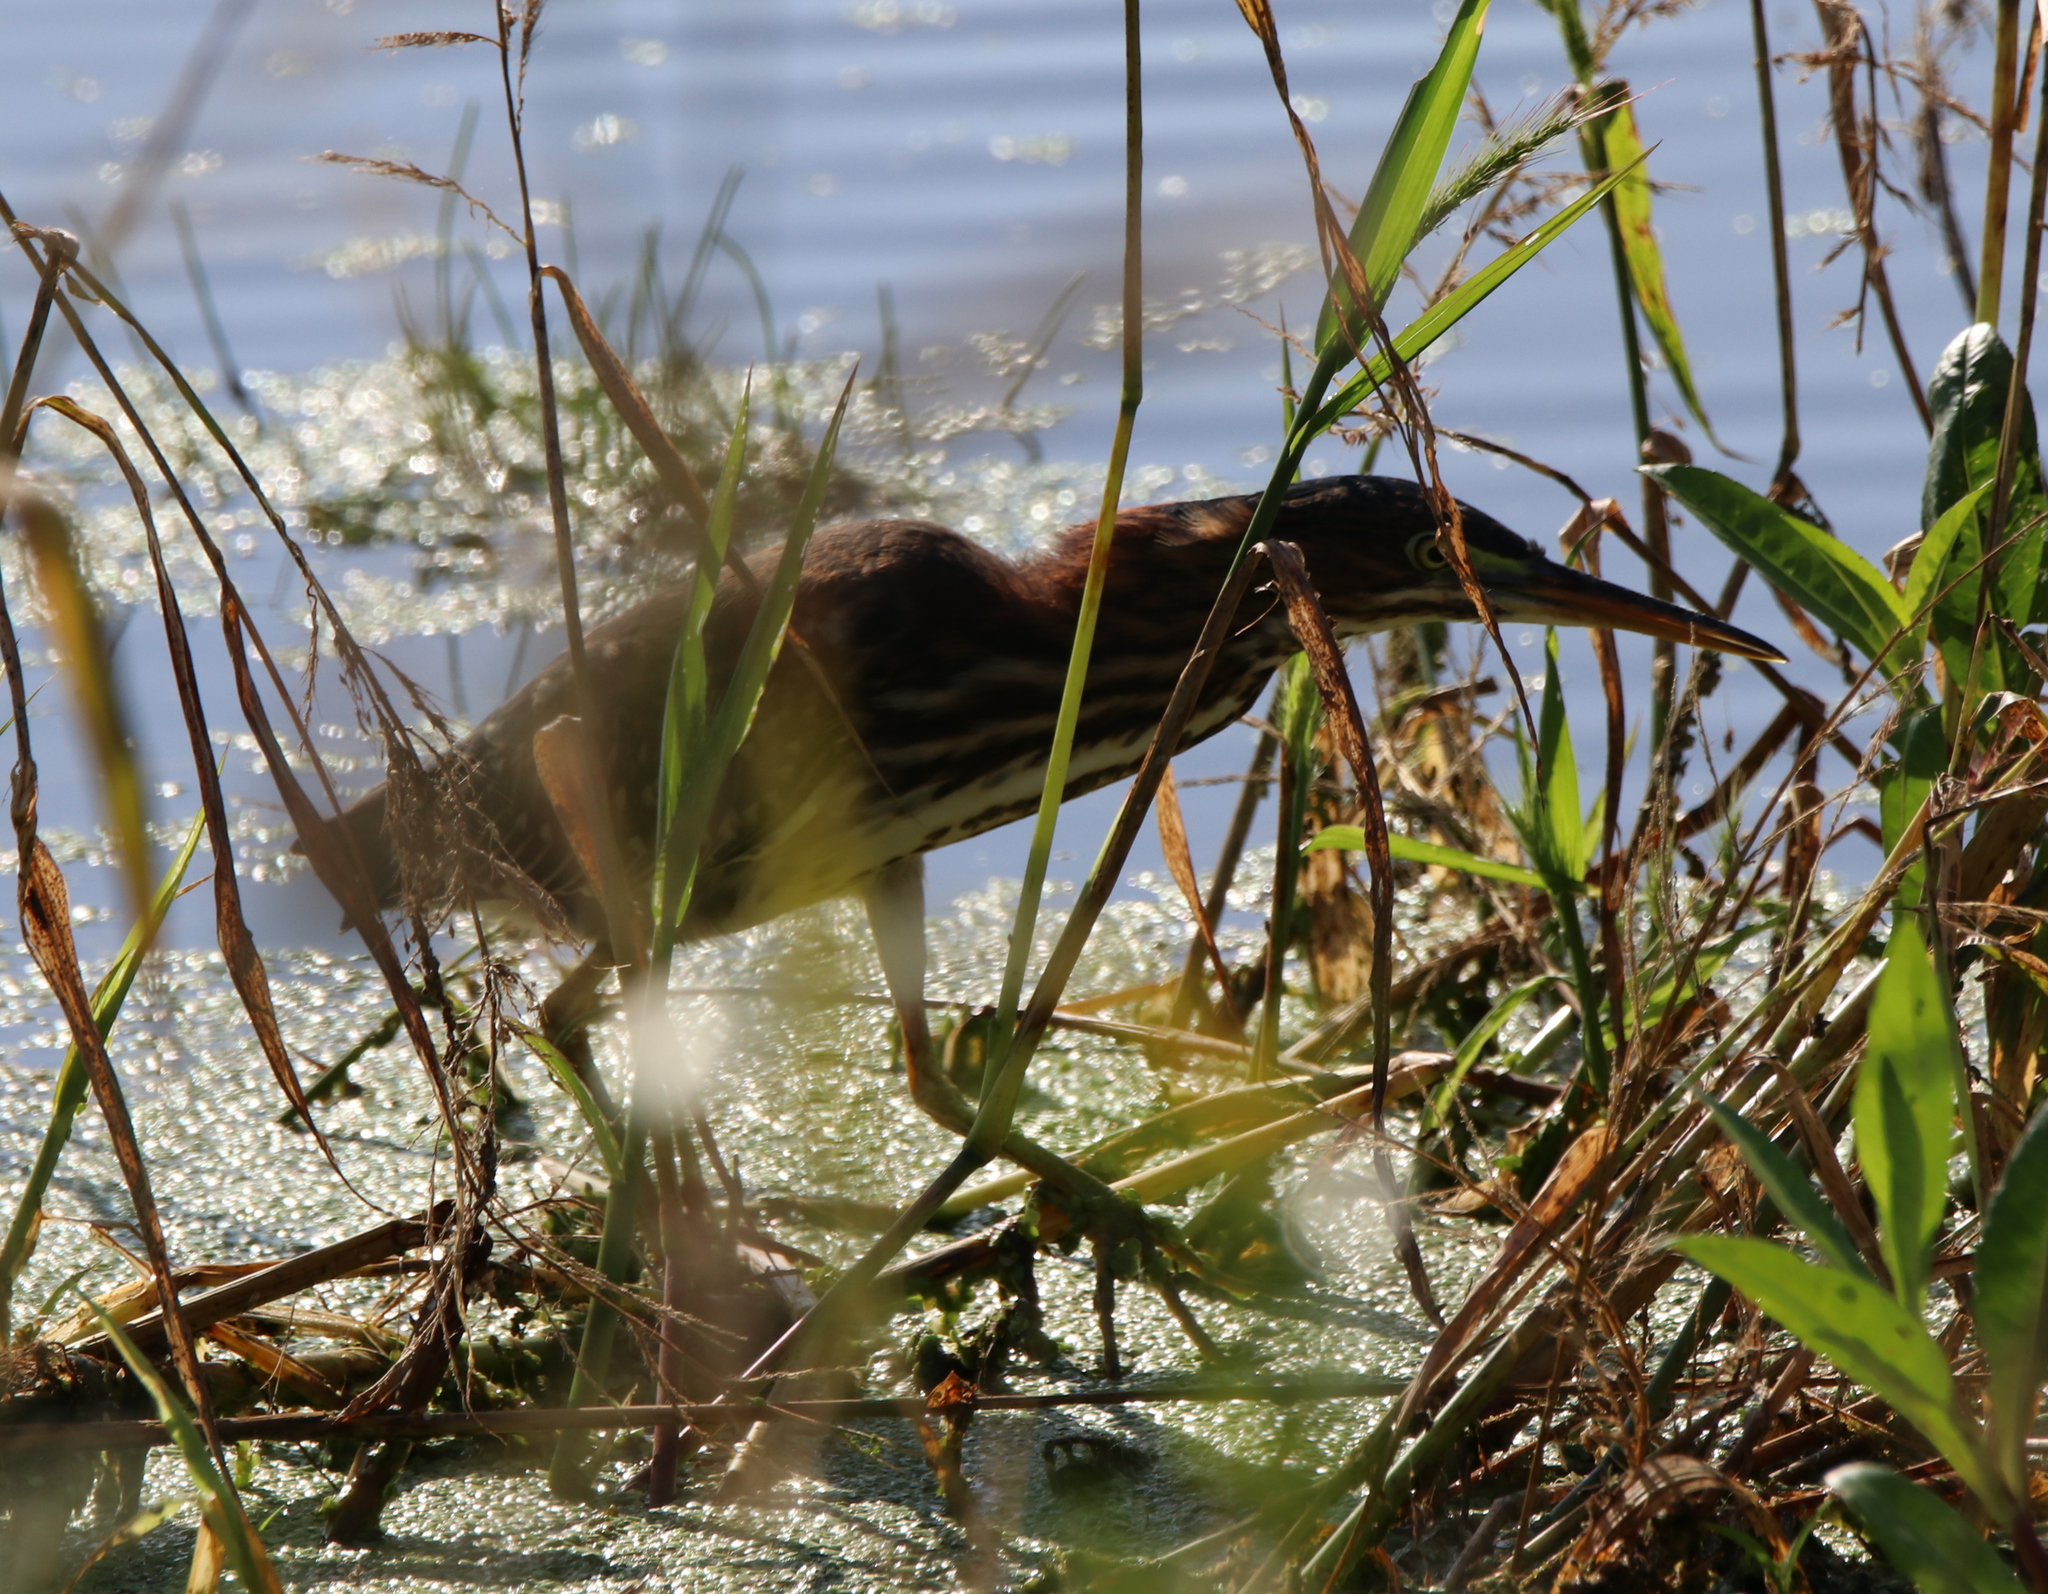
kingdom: Animalia
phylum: Chordata
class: Aves
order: Pelecaniformes
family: Ardeidae
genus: Butorides
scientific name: Butorides virescens
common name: Green heron
